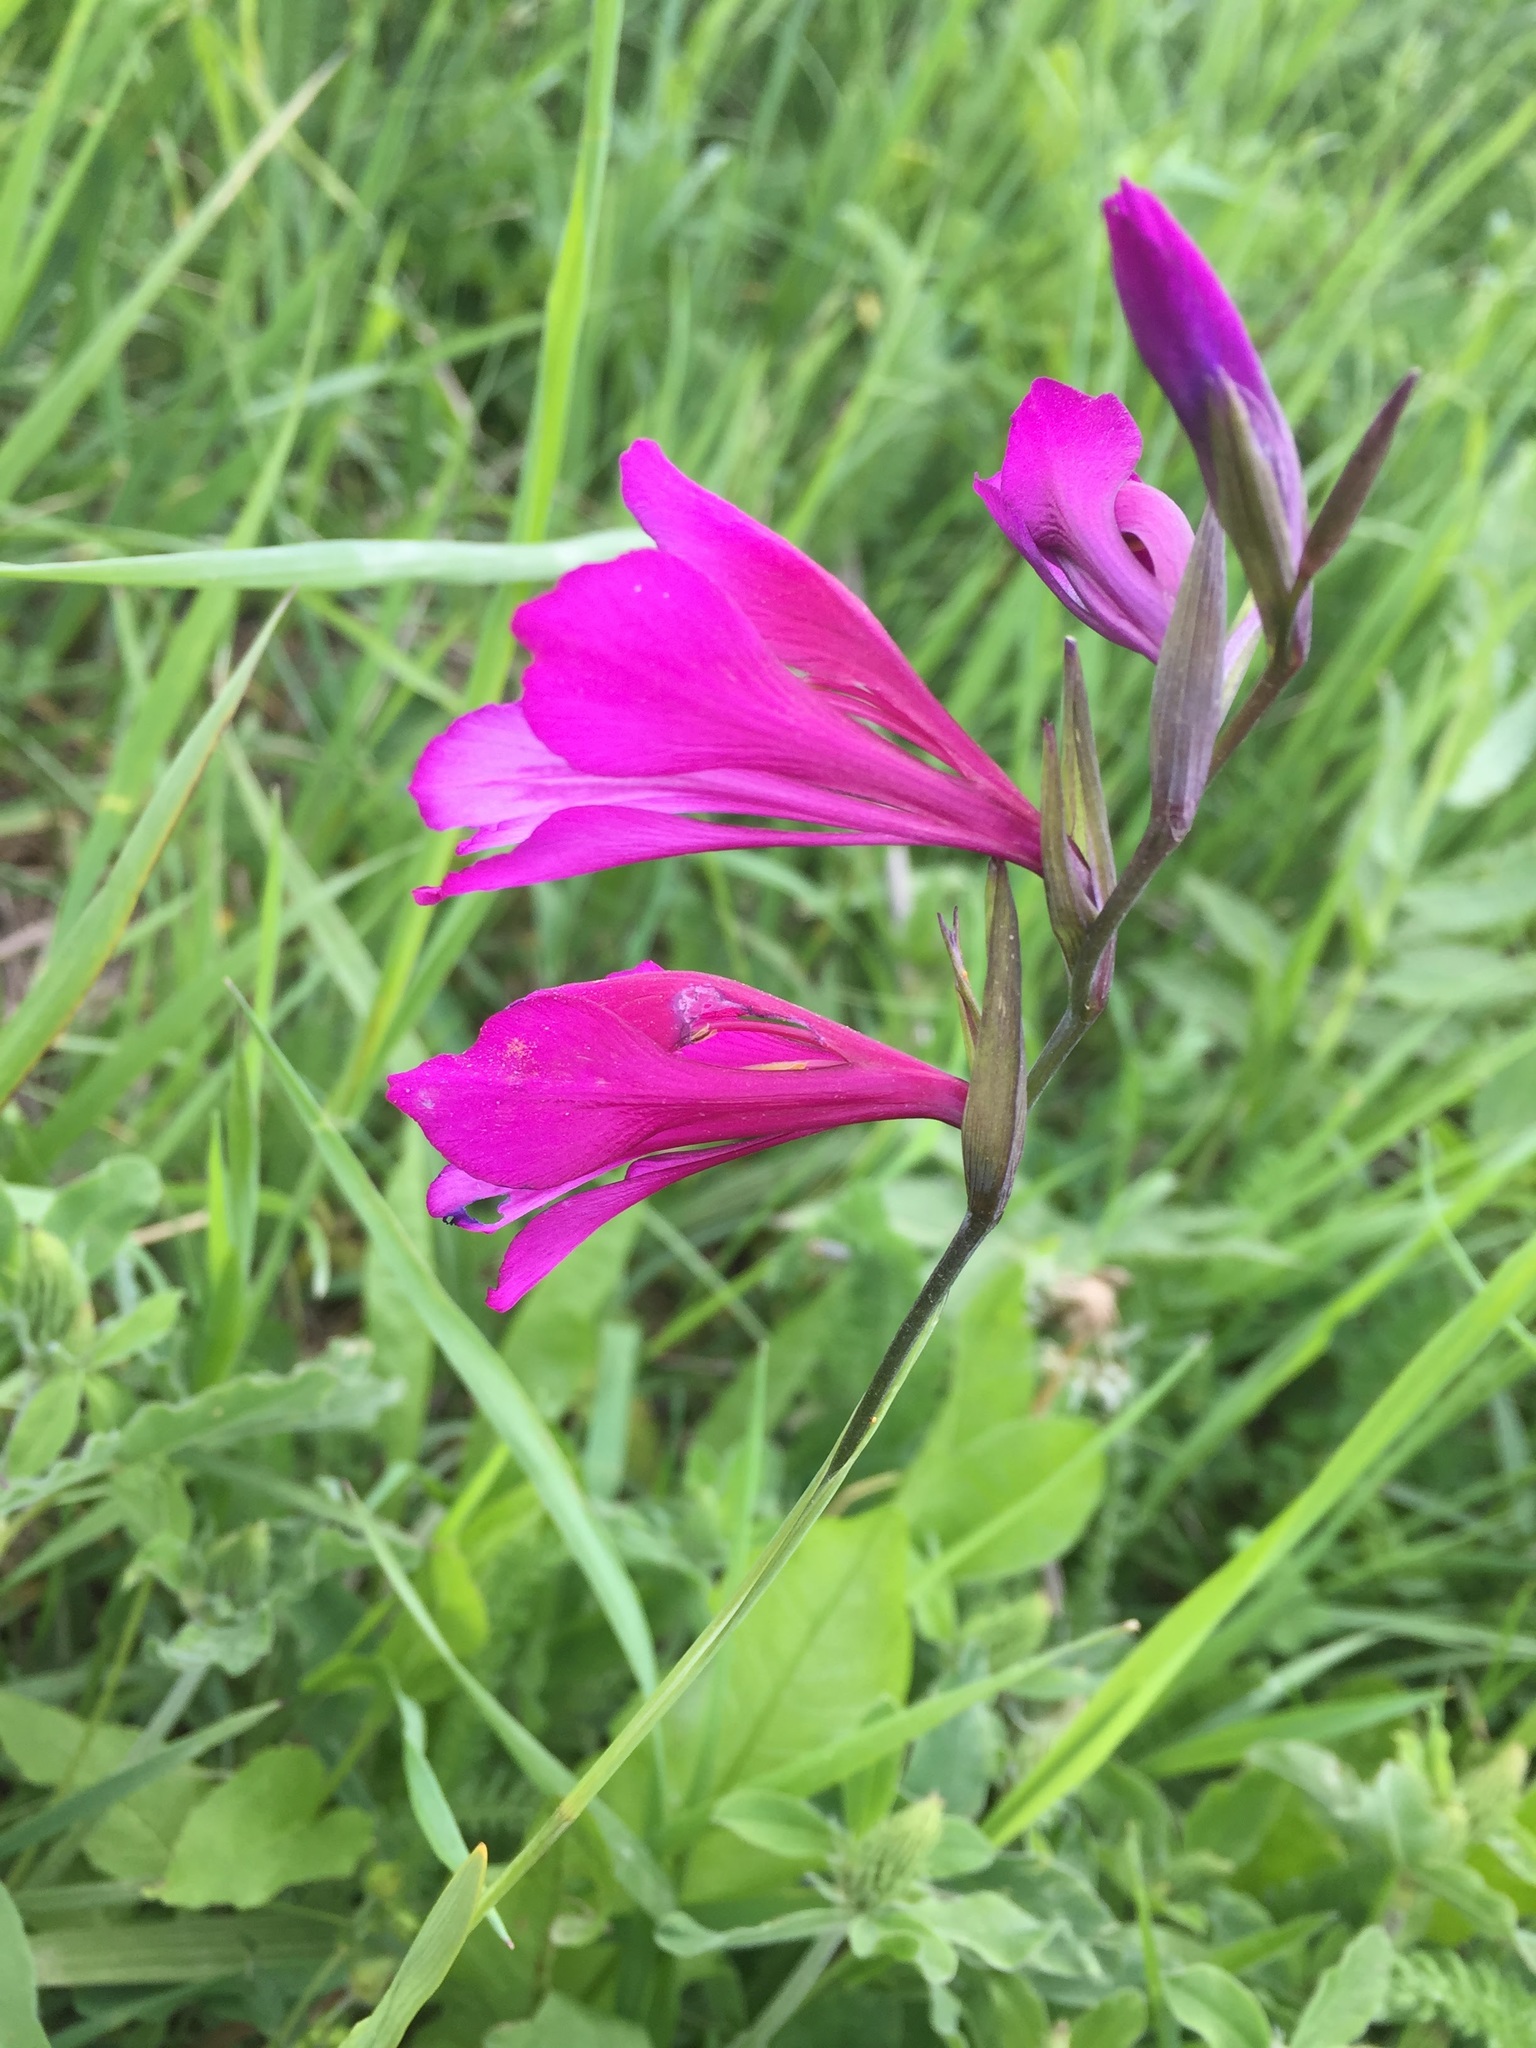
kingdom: Plantae
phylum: Tracheophyta
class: Liliopsida
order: Asparagales
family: Iridaceae
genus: Gladiolus
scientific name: Gladiolus italicus
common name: Field gladiolus
